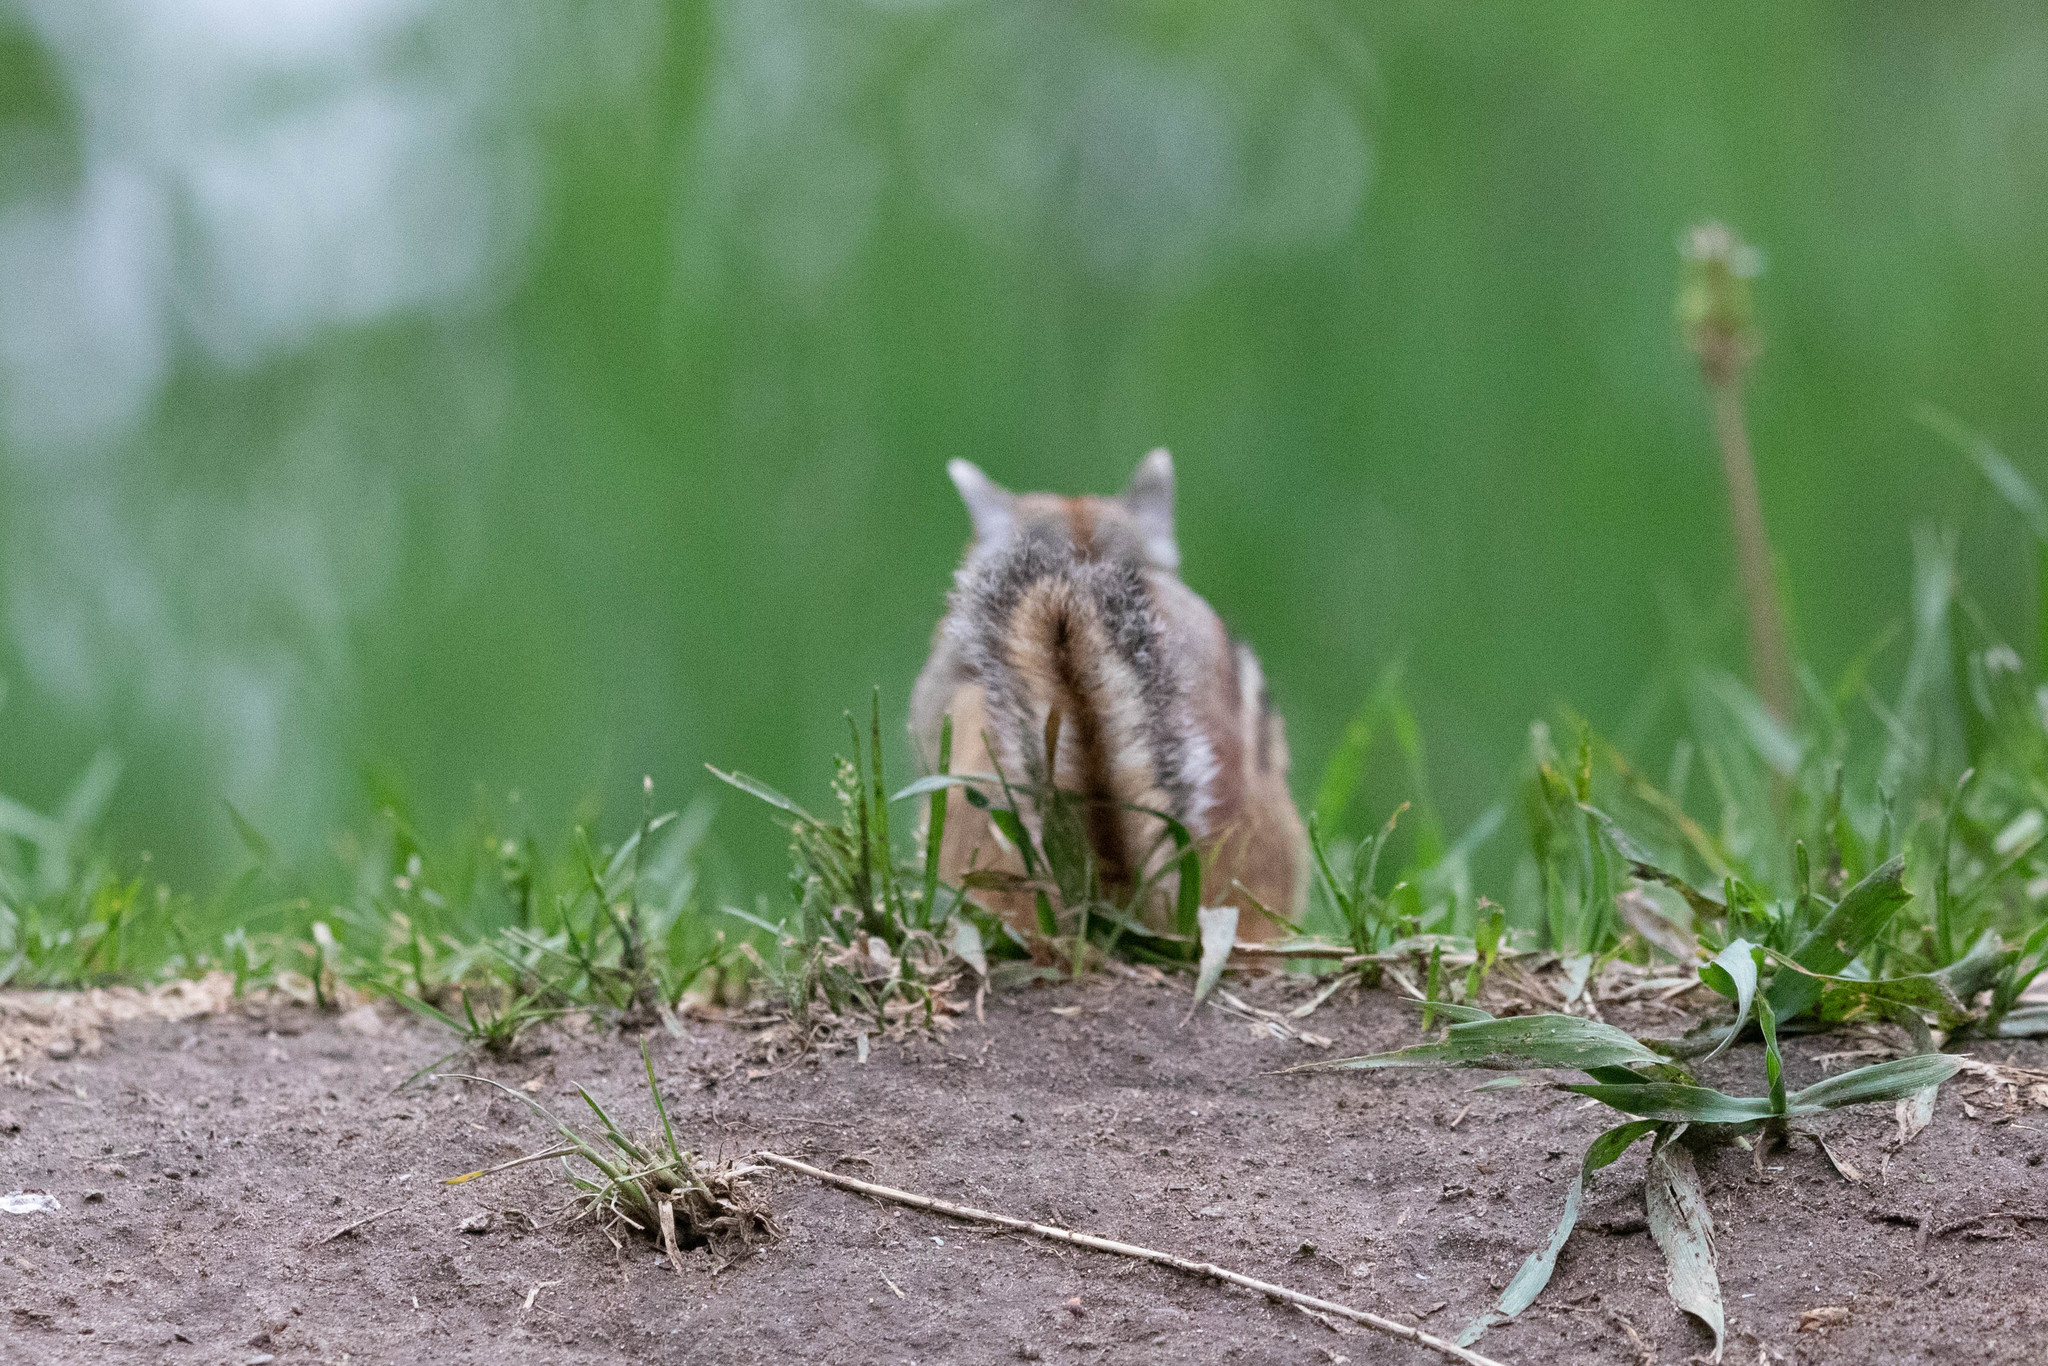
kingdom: Animalia
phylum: Chordata
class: Mammalia
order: Rodentia
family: Sciuridae
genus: Tamias
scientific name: Tamias striatus
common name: Eastern chipmunk
